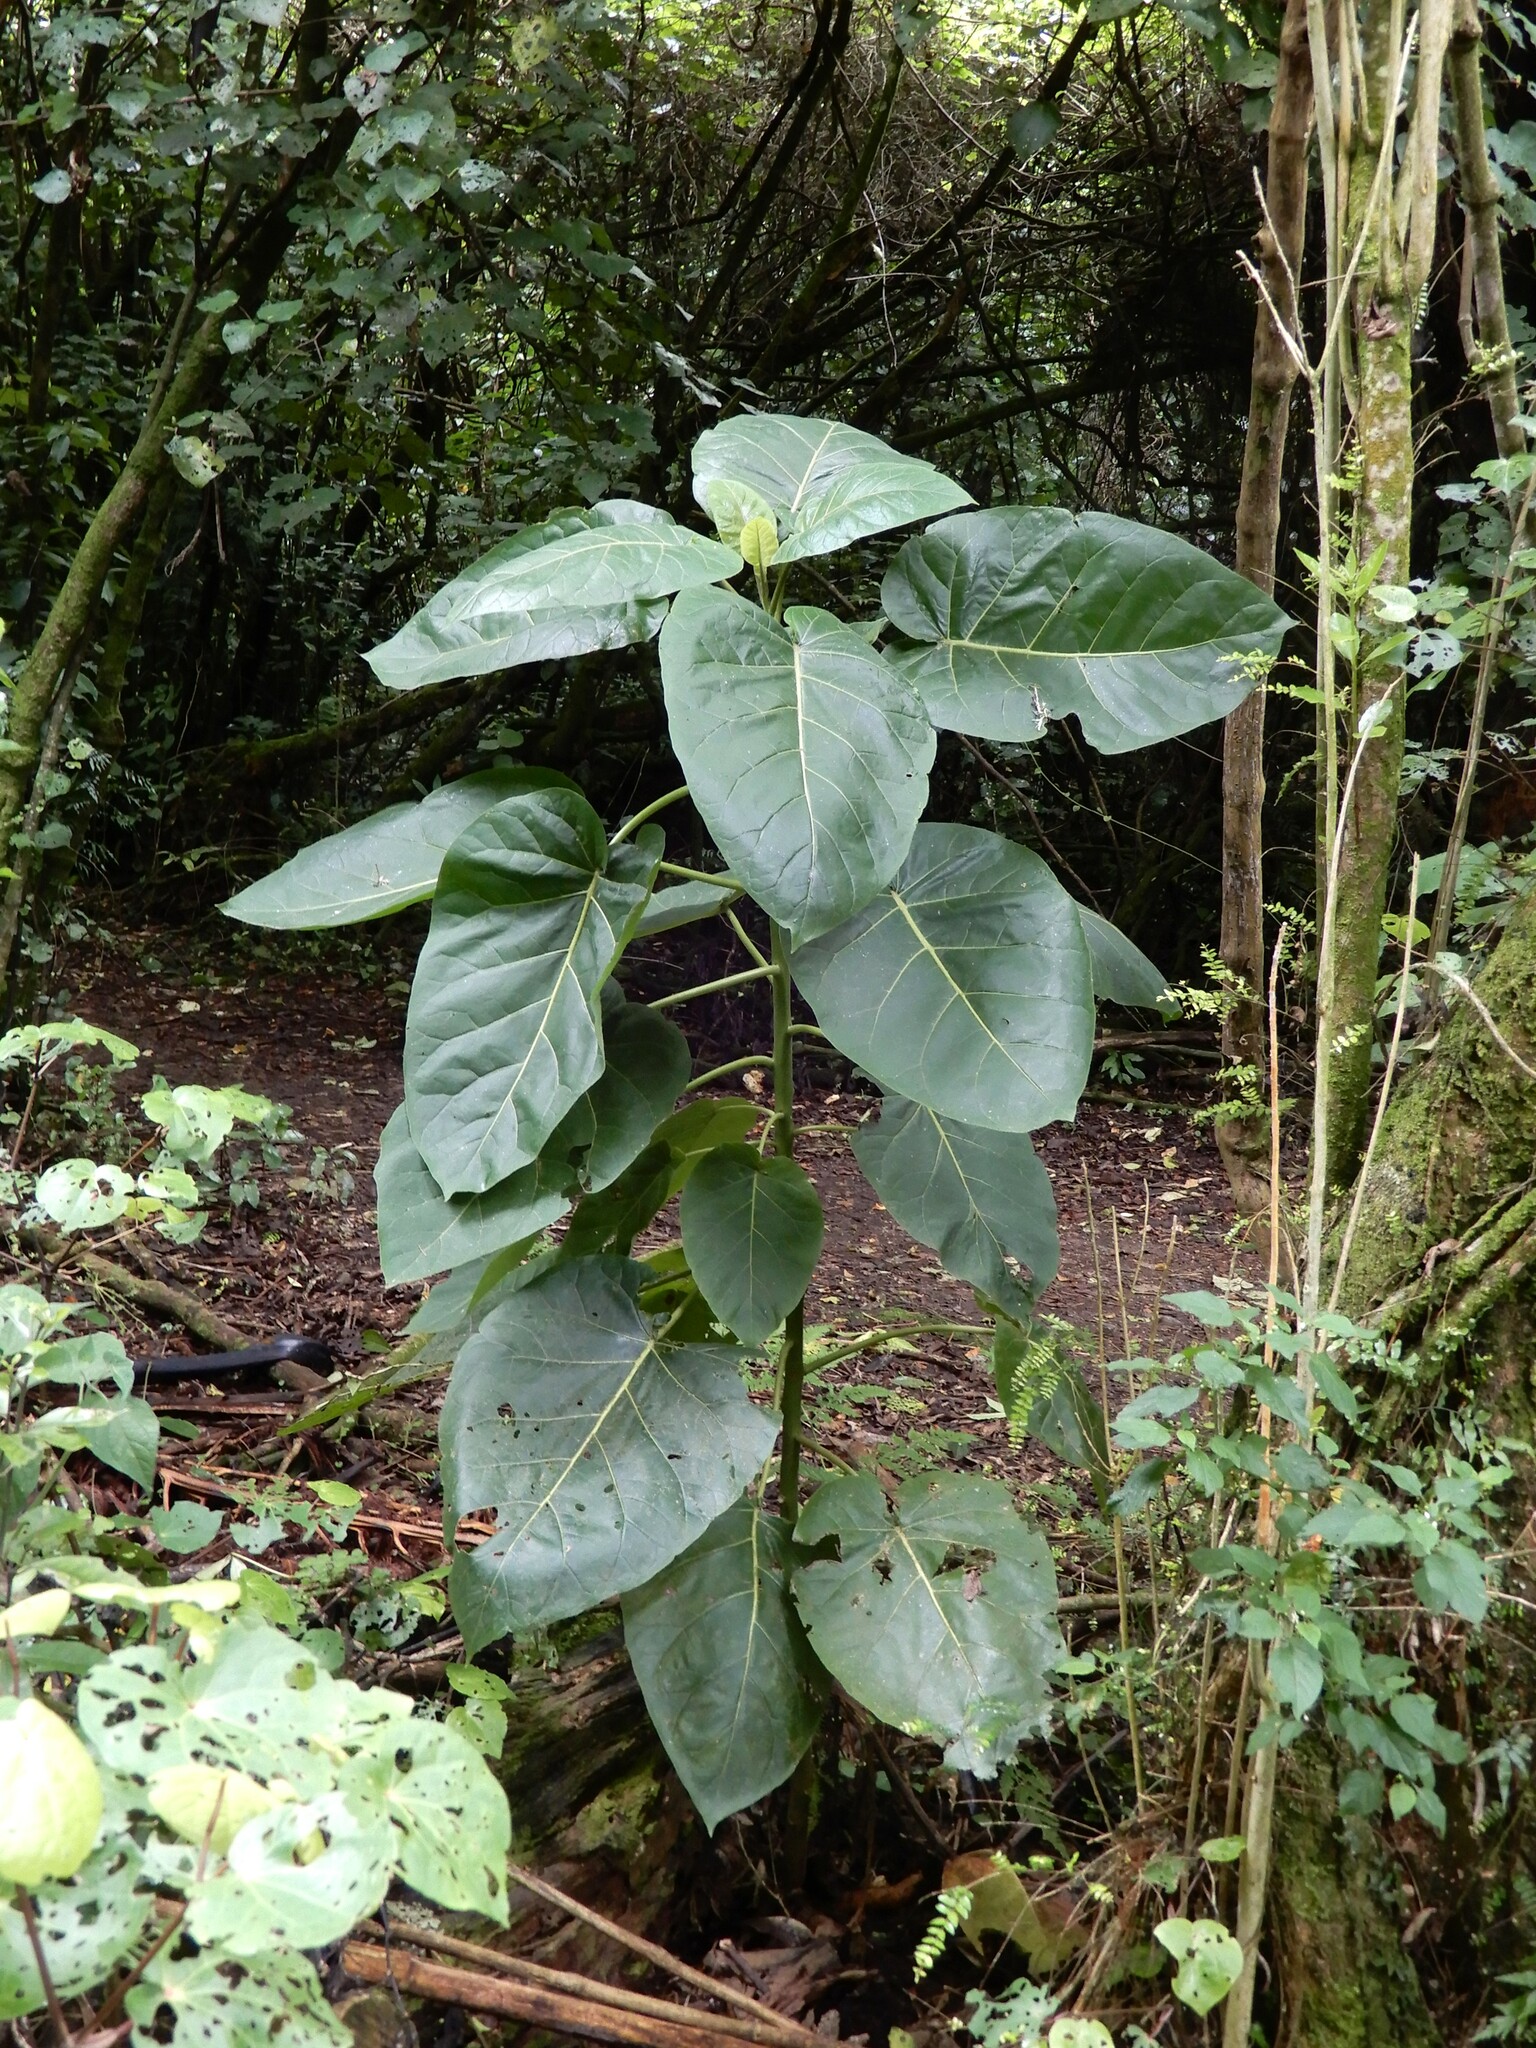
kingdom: Plantae
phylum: Tracheophyta
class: Magnoliopsida
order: Solanales
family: Solanaceae
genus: Solanum
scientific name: Solanum betaceum
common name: Tamarillo
